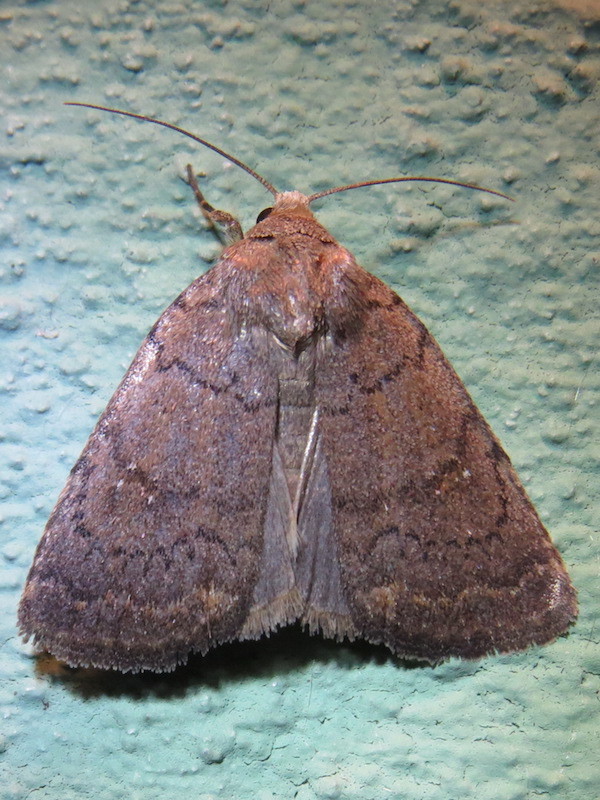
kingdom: Animalia
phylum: Arthropoda
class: Insecta
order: Lepidoptera
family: Noctuidae
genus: Athetis
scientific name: Athetis tarda
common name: Slowpoke moth
